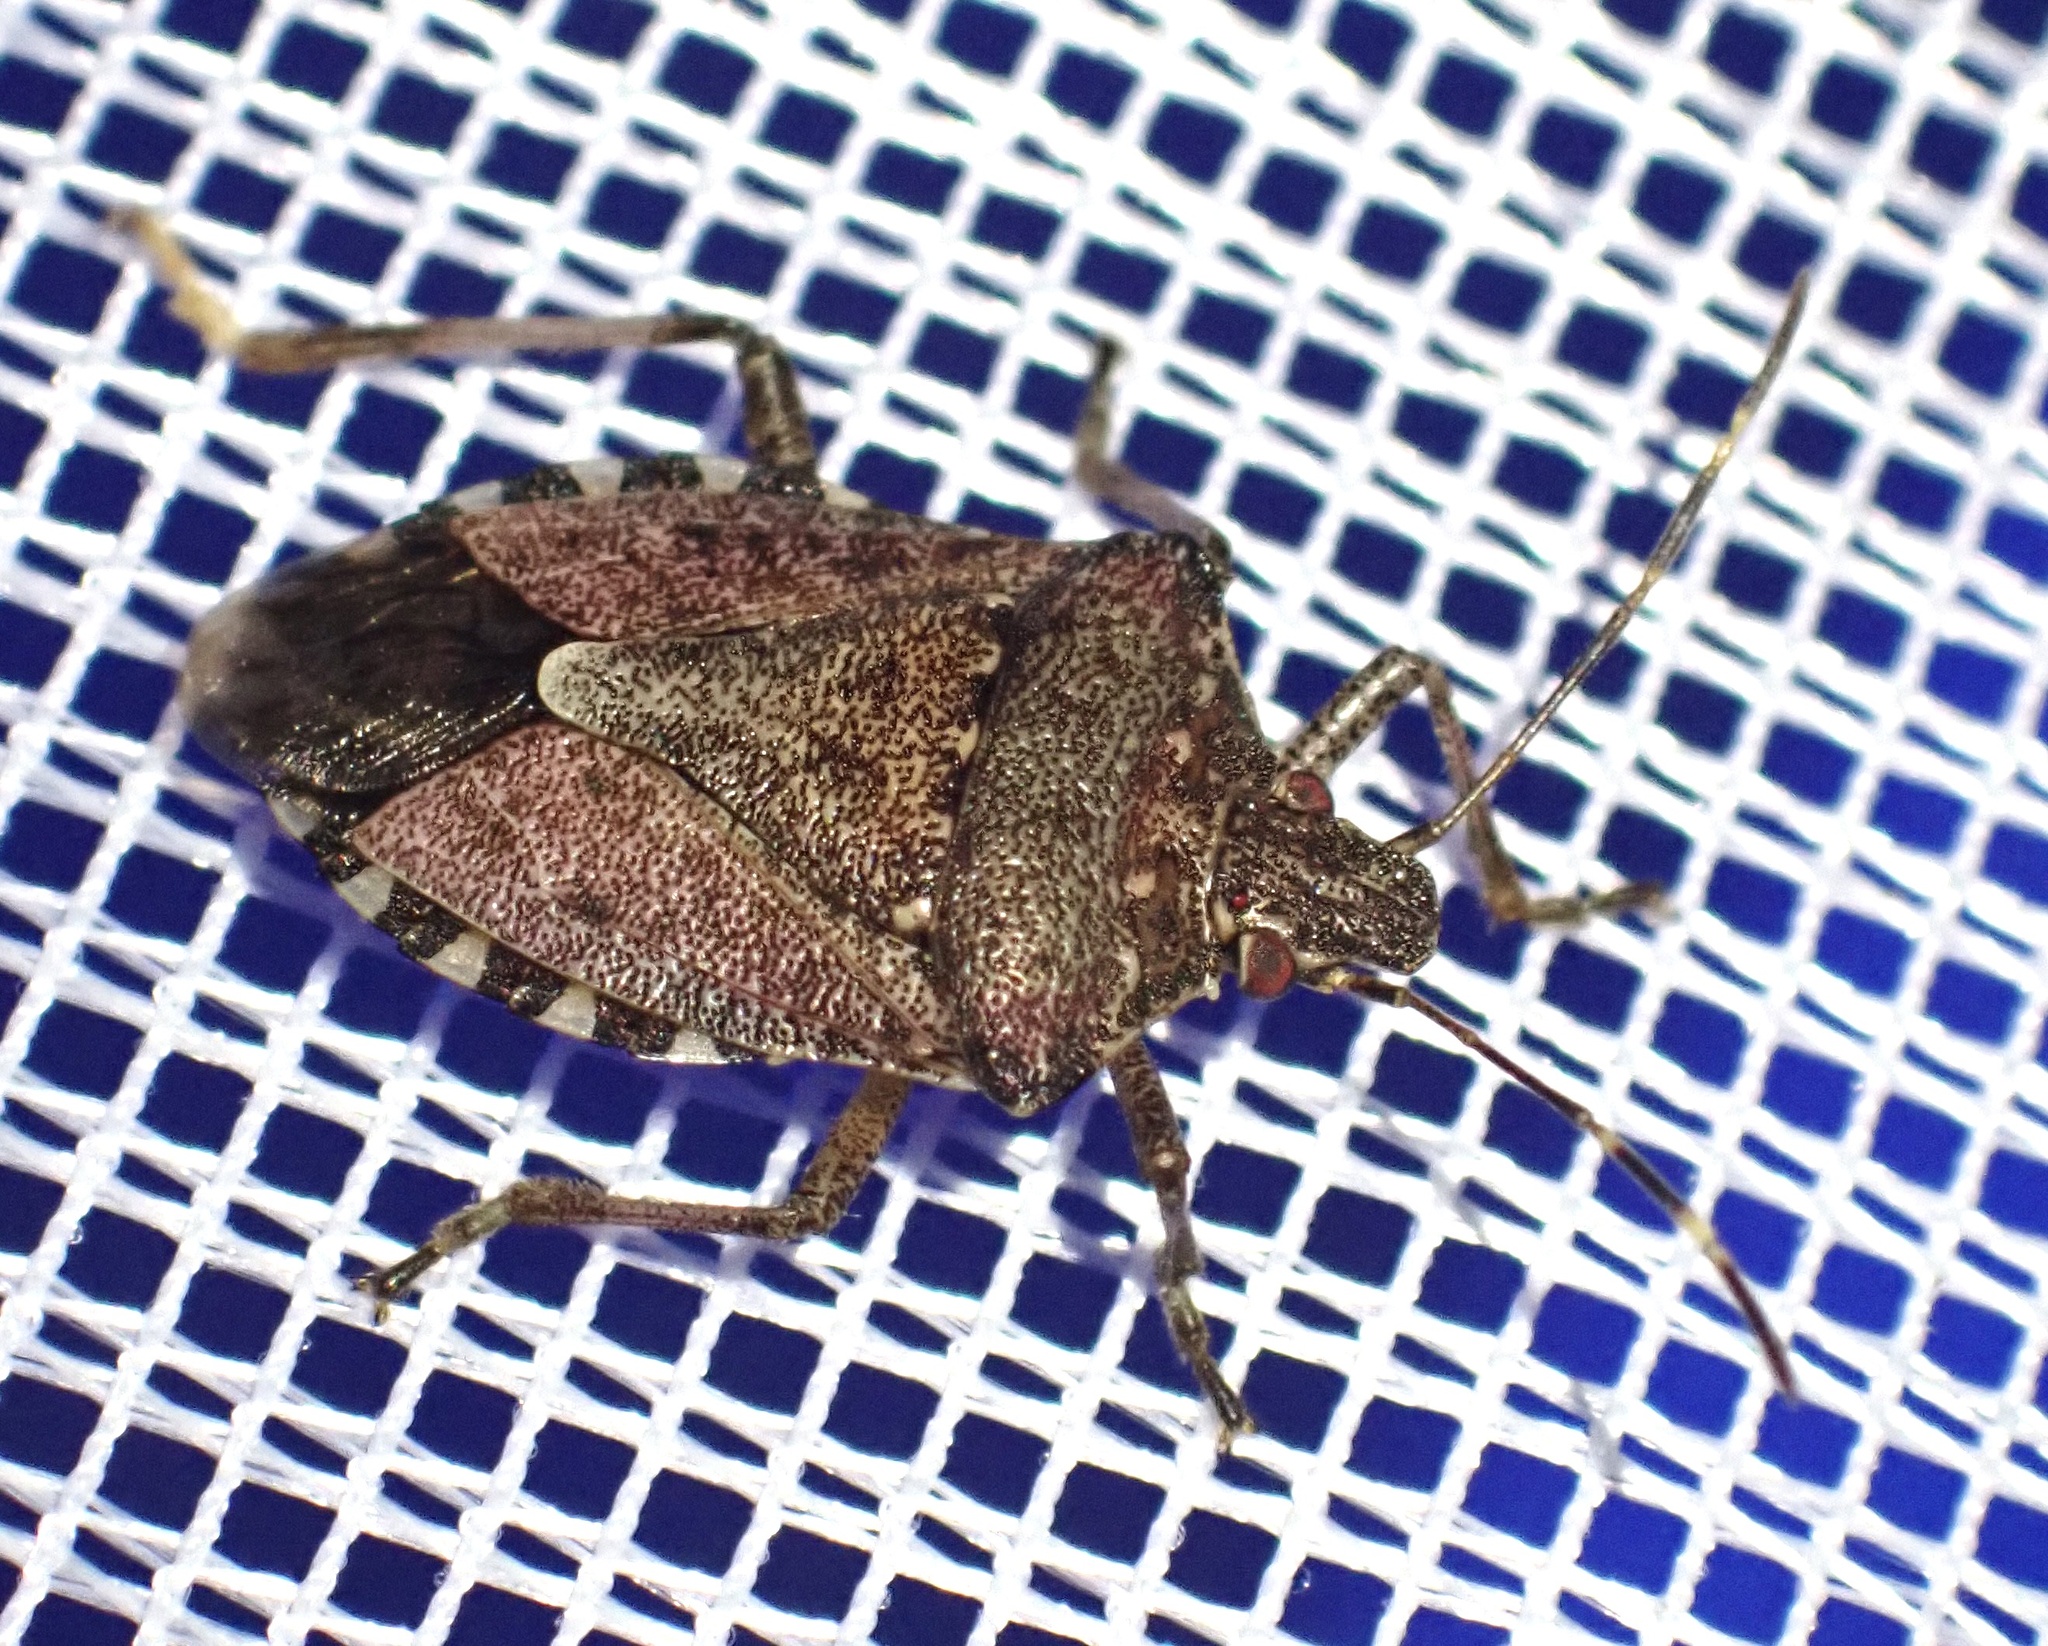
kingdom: Animalia
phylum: Arthropoda
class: Insecta
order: Hemiptera
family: Pentatomidae
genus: Halyomorpha
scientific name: Halyomorpha halys
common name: Brown marmorated stink bug
